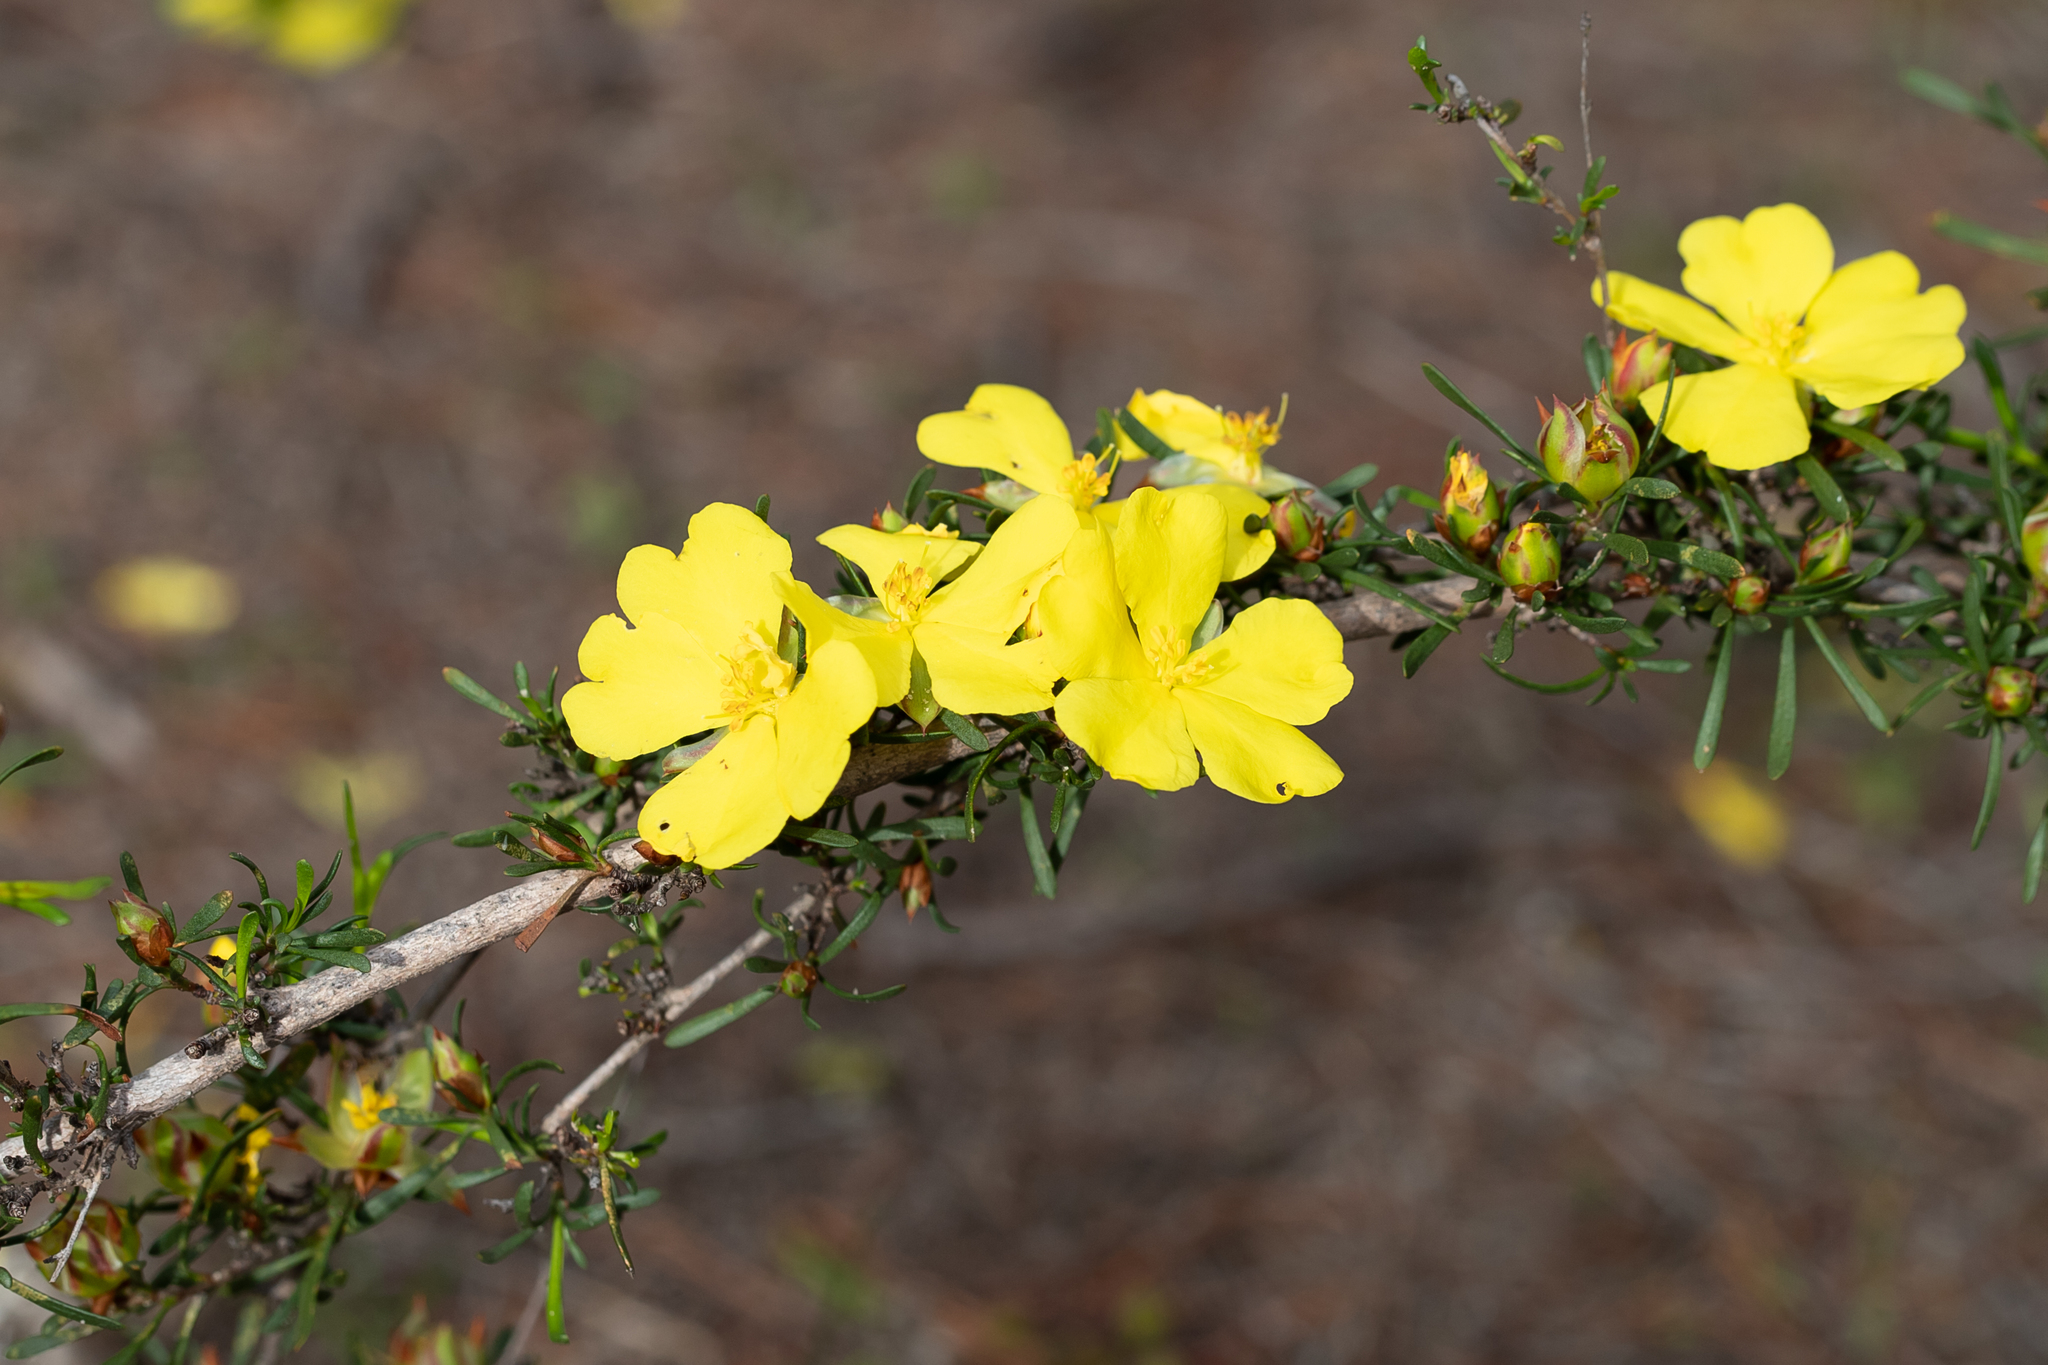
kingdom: Plantae
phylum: Tracheophyta
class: Magnoliopsida
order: Dilleniales
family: Dilleniaceae
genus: Hibbertia
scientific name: Hibbertia virgata
